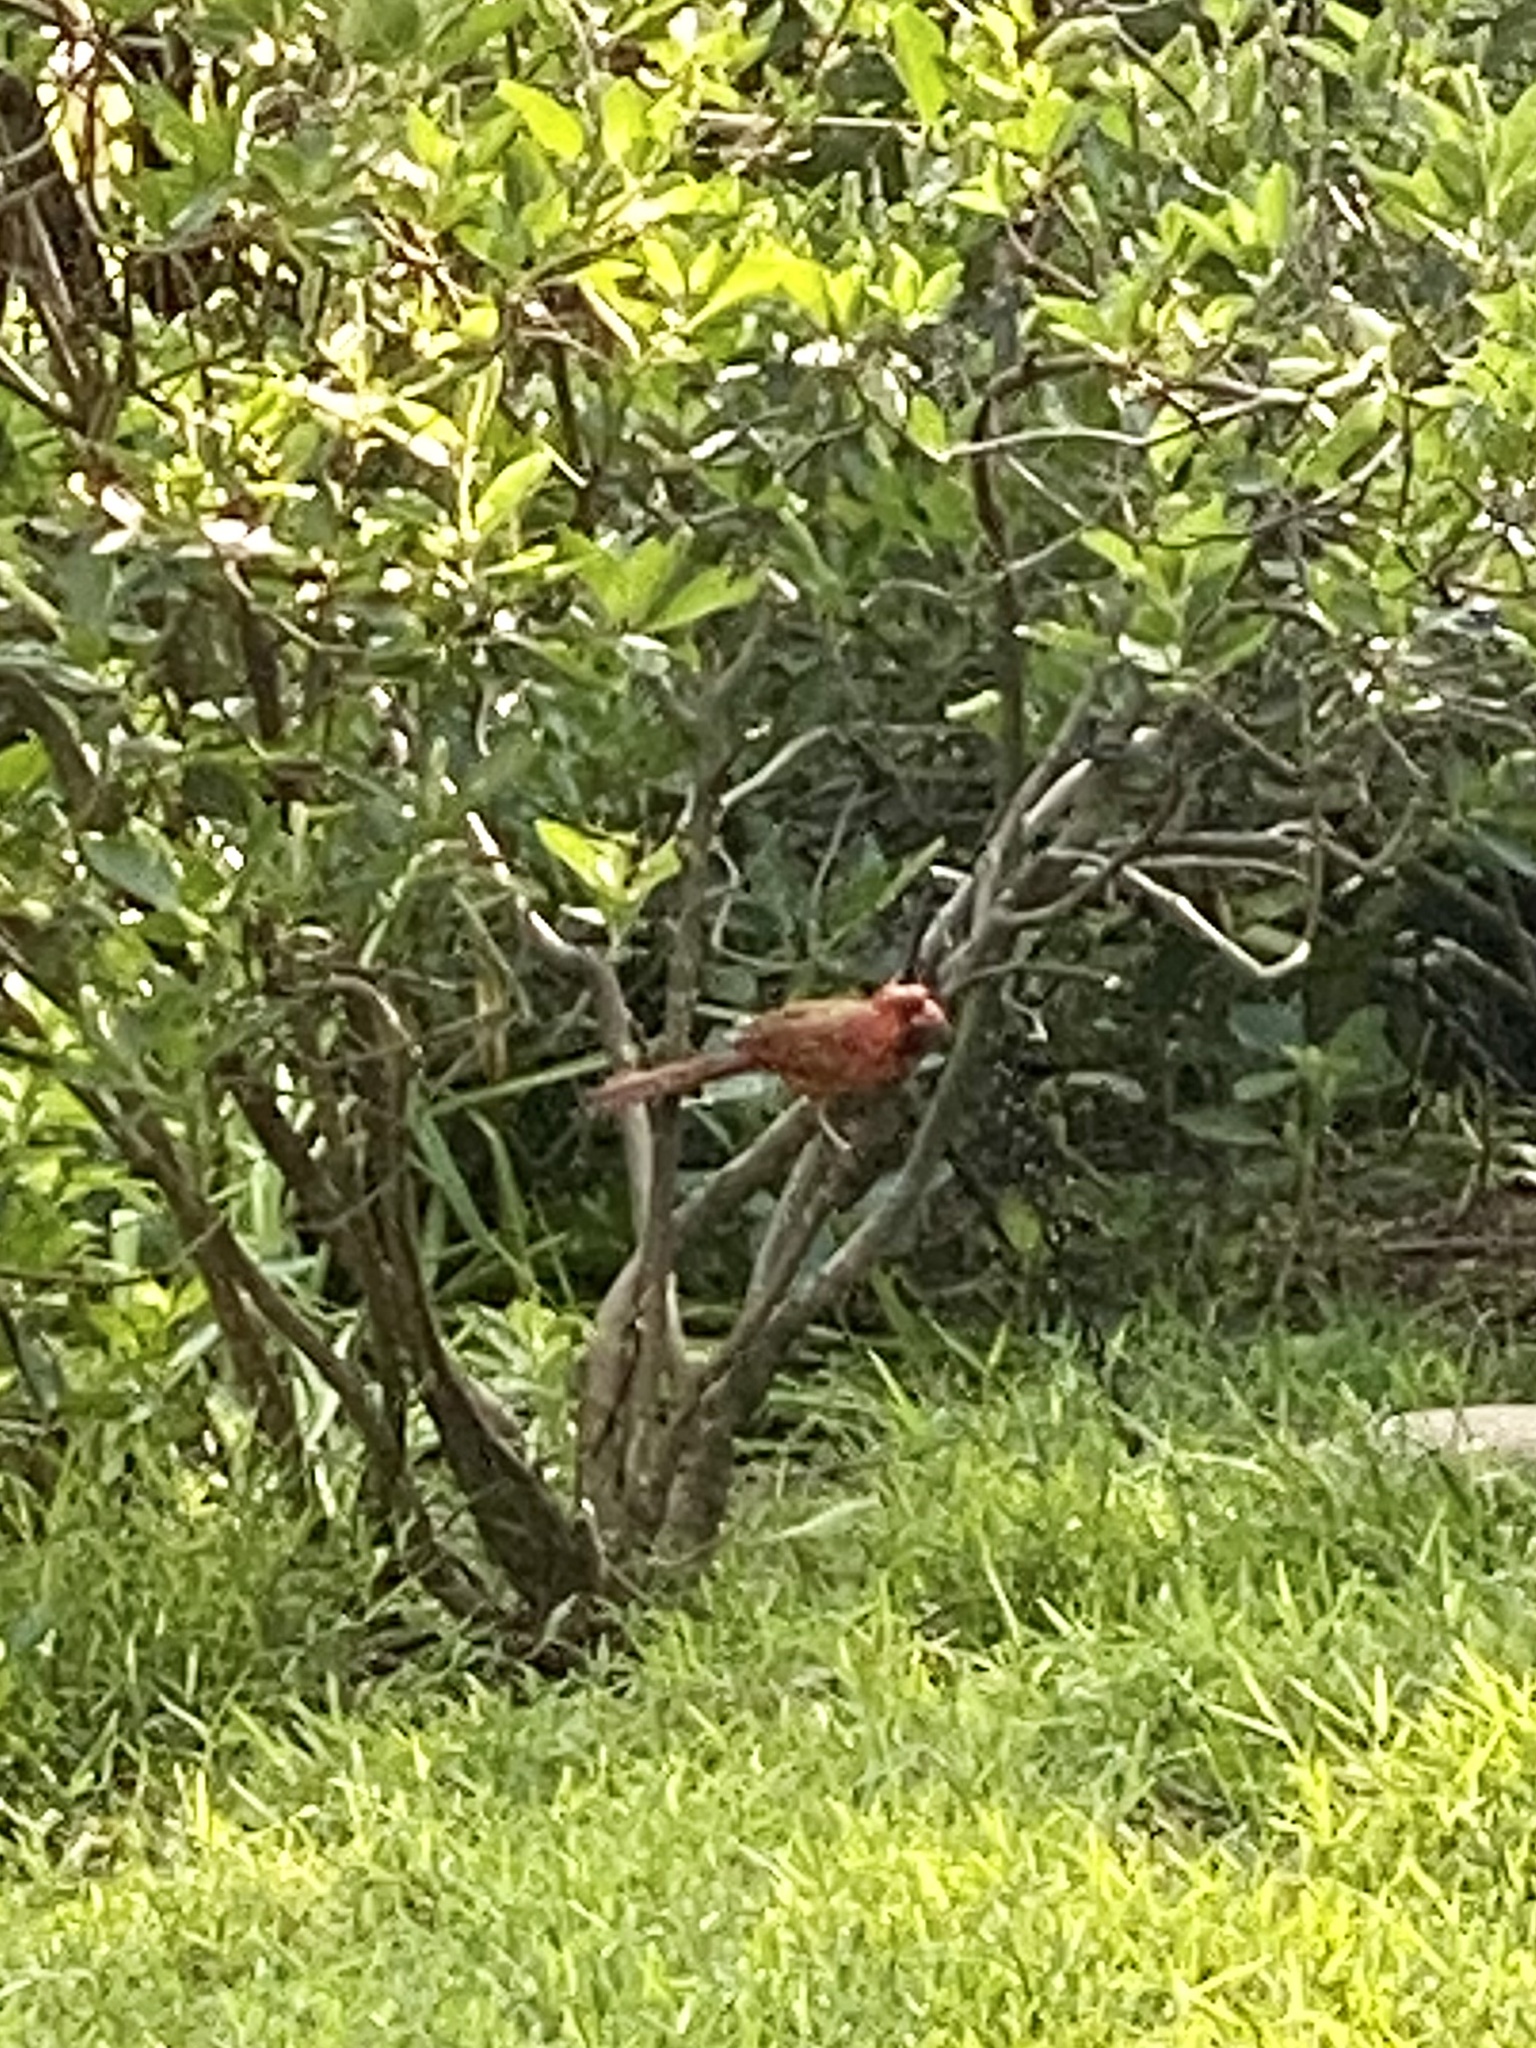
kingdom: Animalia
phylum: Chordata
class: Aves
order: Passeriformes
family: Cardinalidae
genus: Cardinalis
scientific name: Cardinalis cardinalis
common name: Northern cardinal
